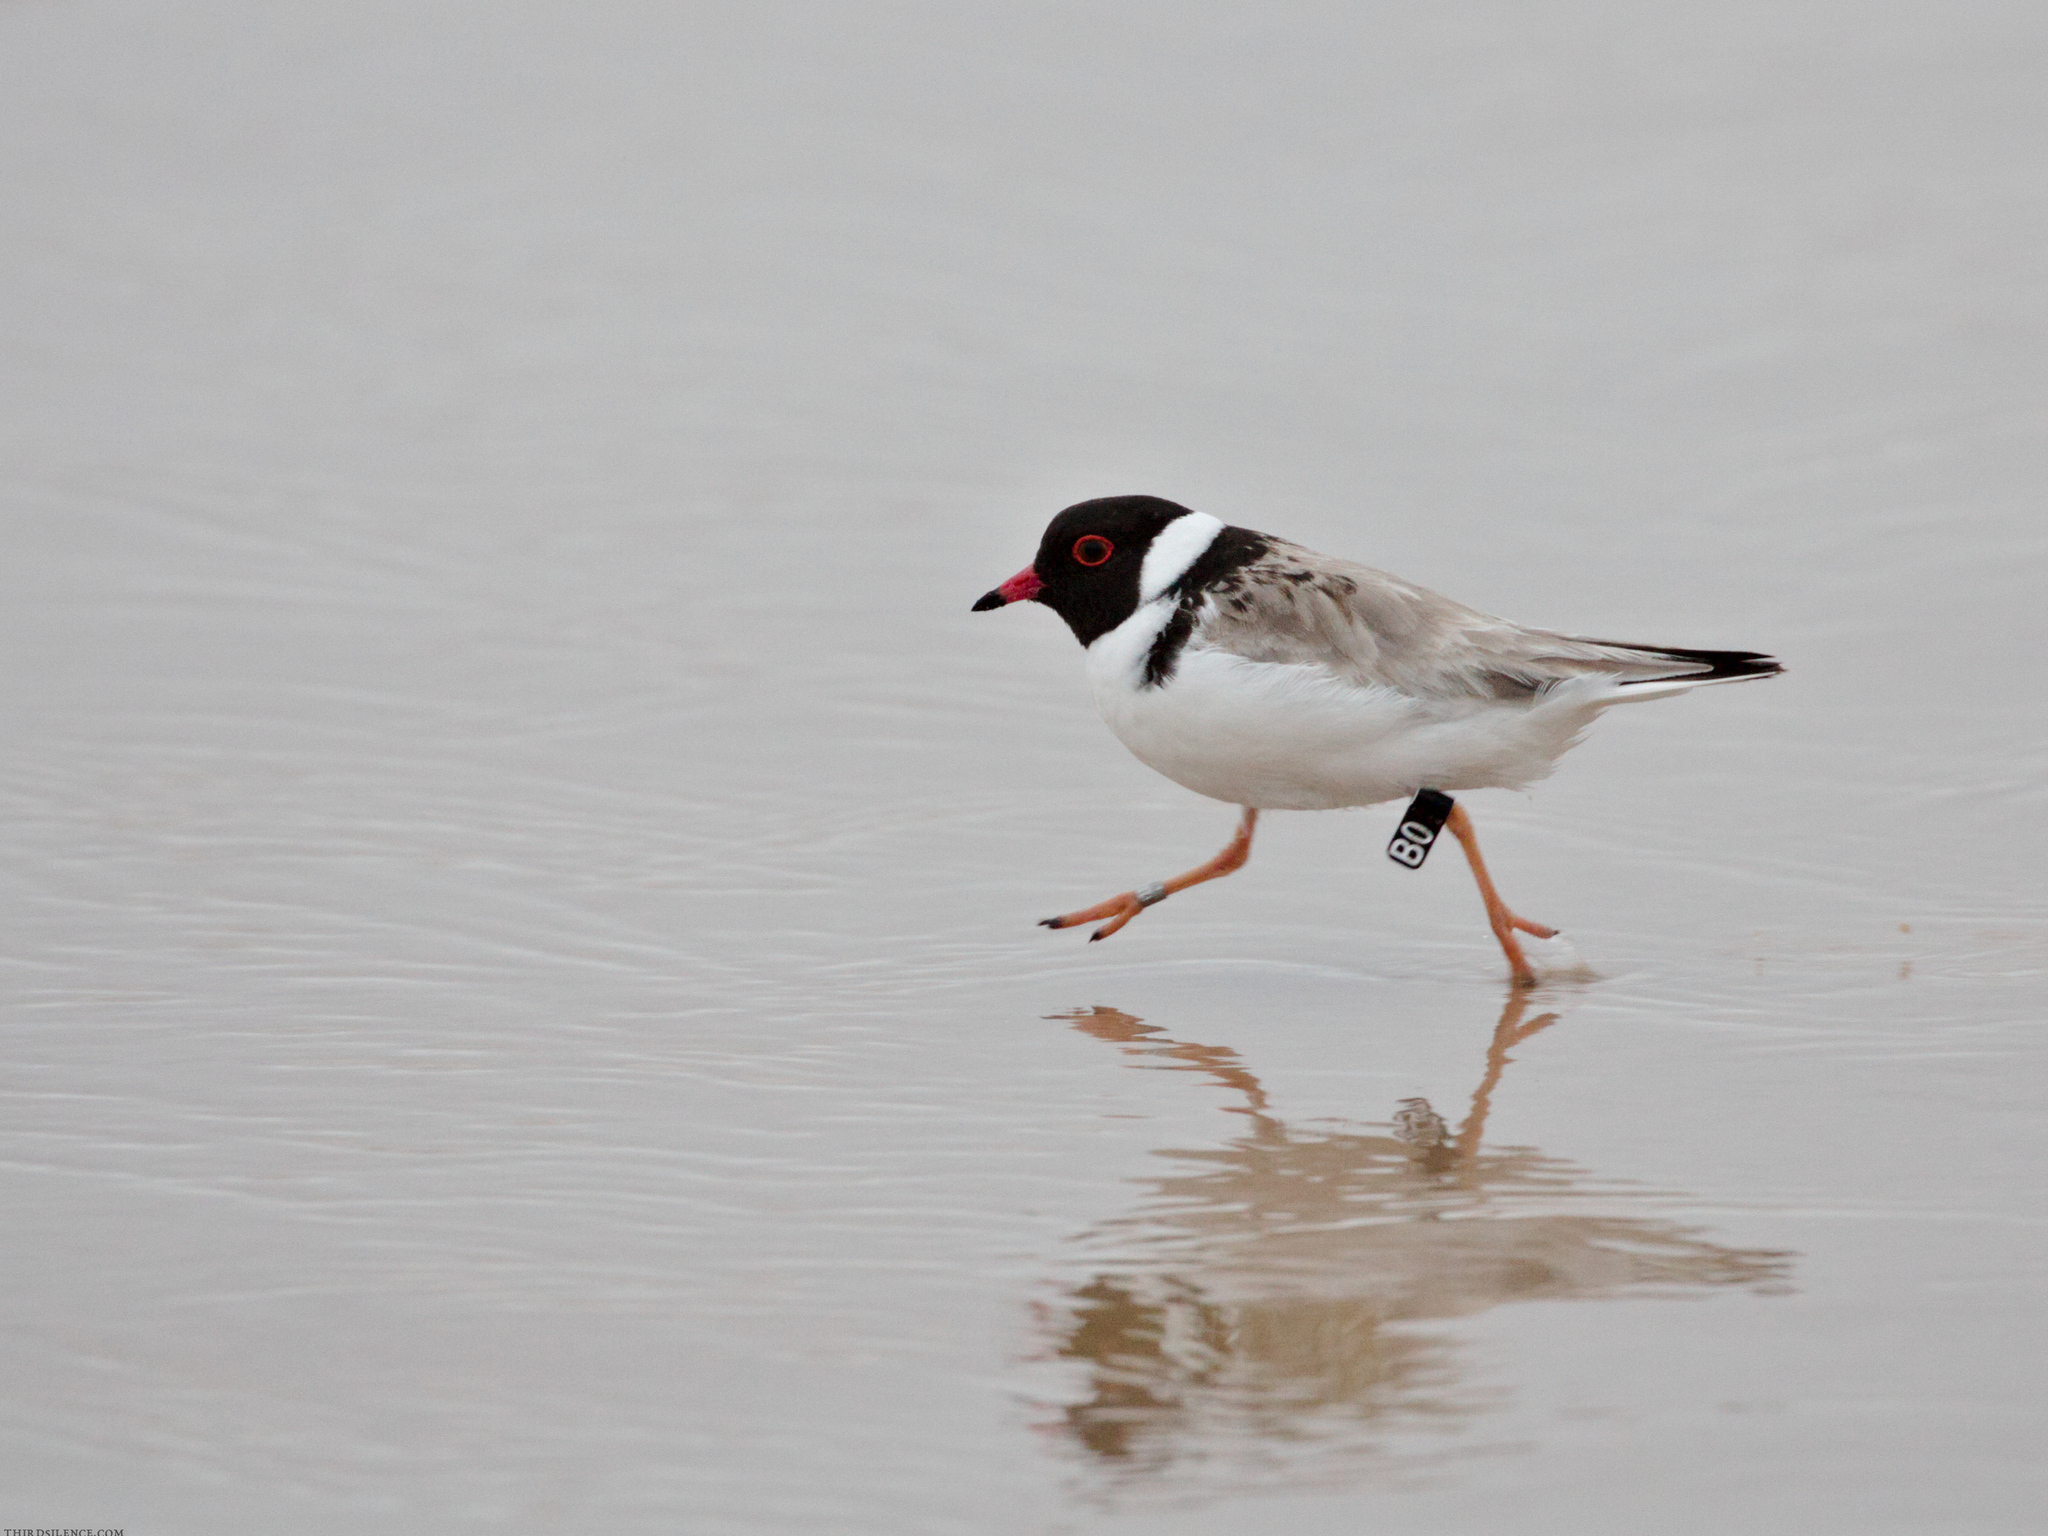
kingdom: Animalia
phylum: Chordata
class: Aves
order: Charadriiformes
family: Charadriidae
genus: Thinornis
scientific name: Thinornis cucullatus
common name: Hooded dotterel
